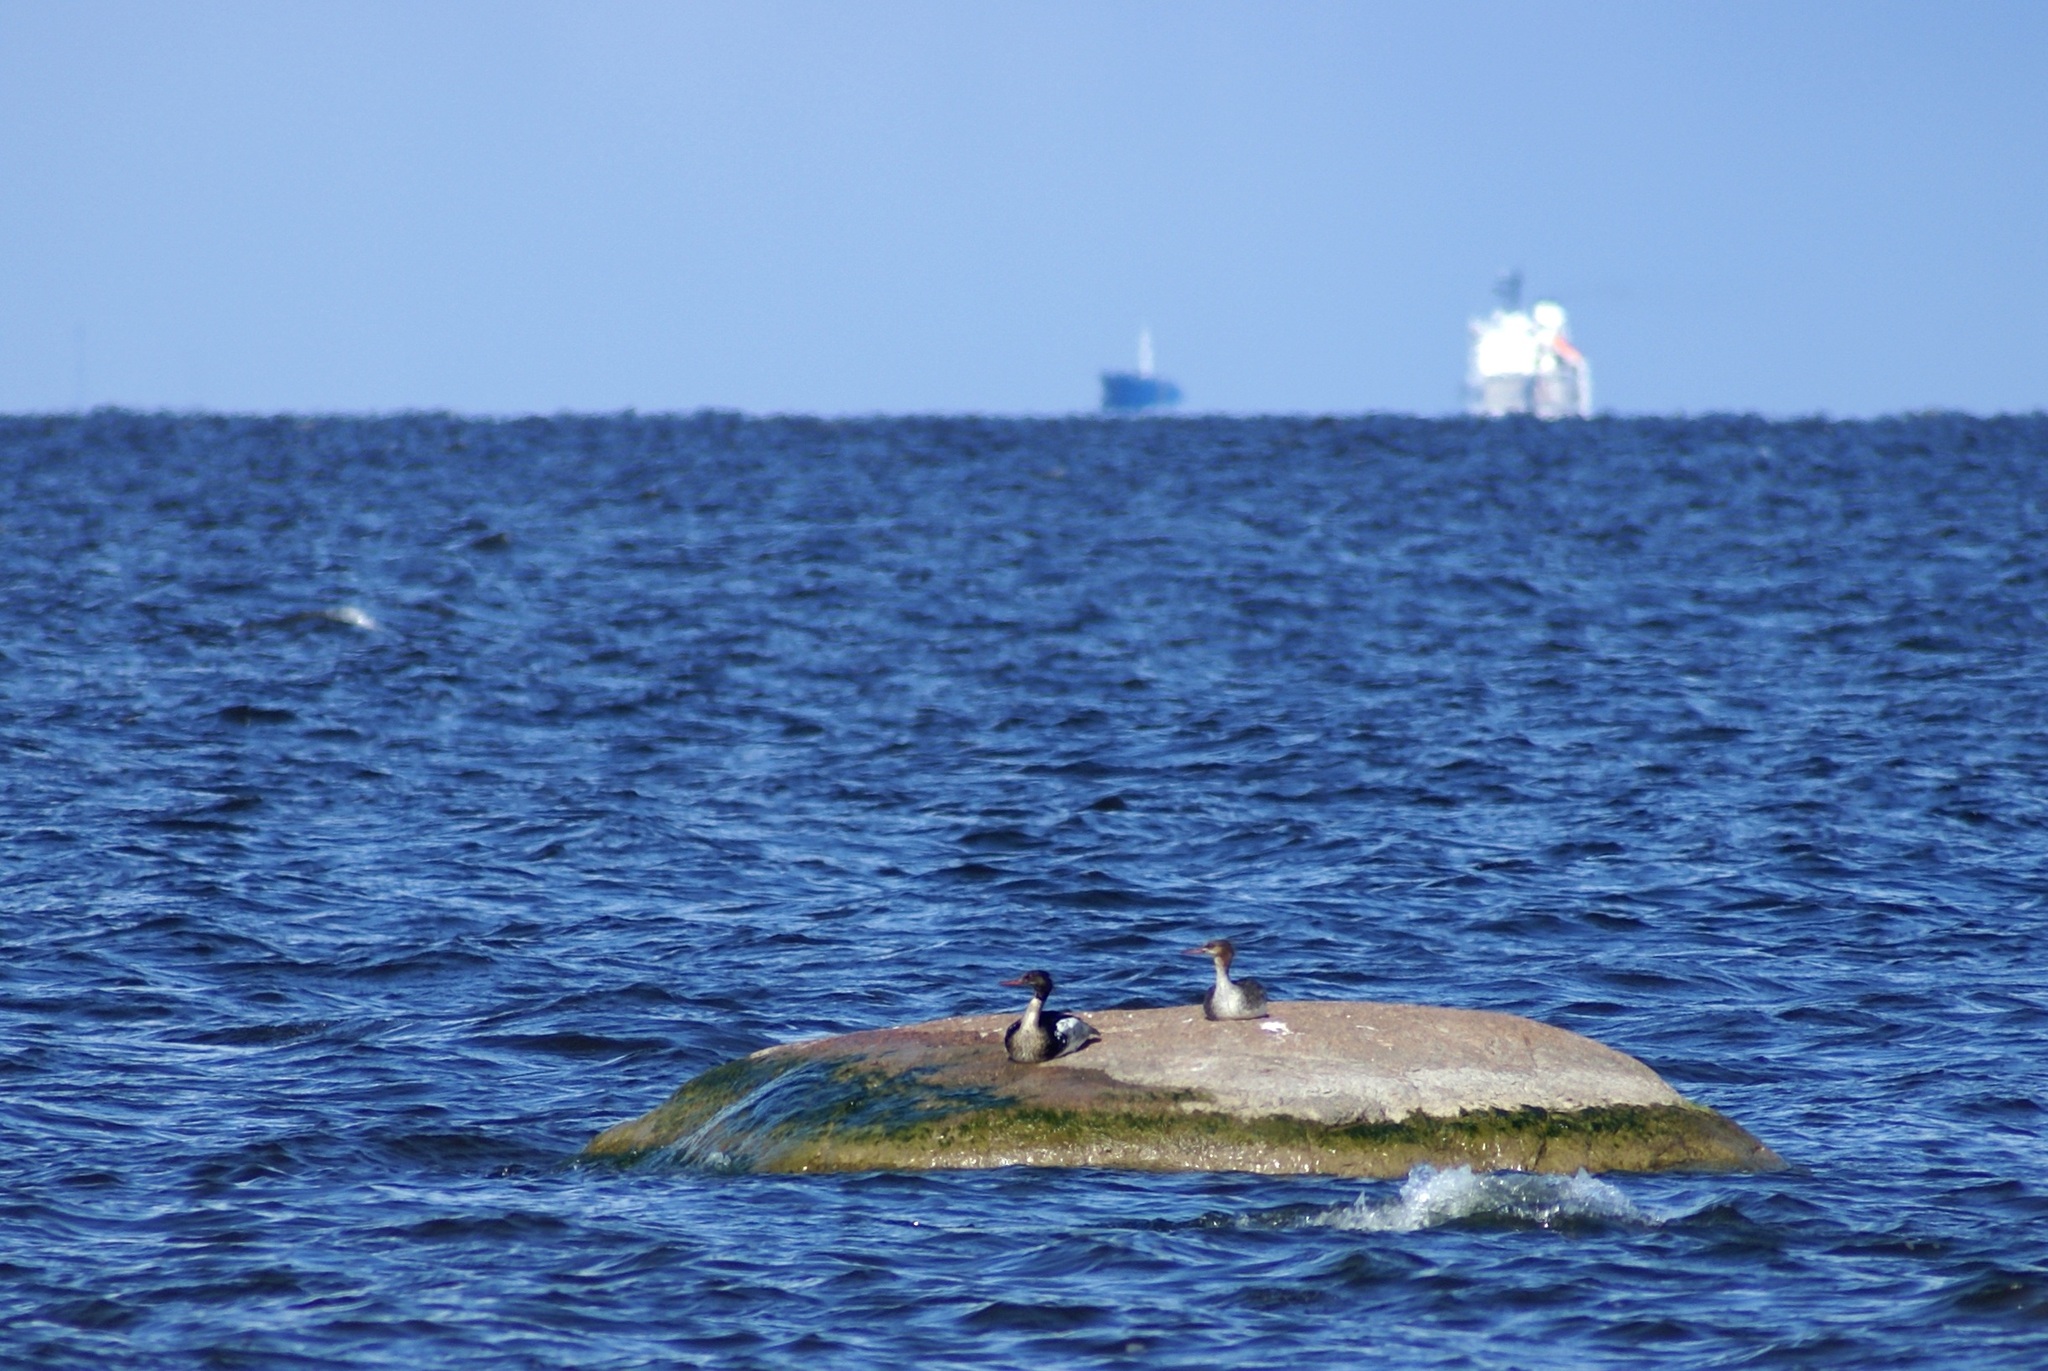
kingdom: Animalia
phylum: Chordata
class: Aves
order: Anseriformes
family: Anatidae
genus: Mergus
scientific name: Mergus serrator
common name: Red-breasted merganser
